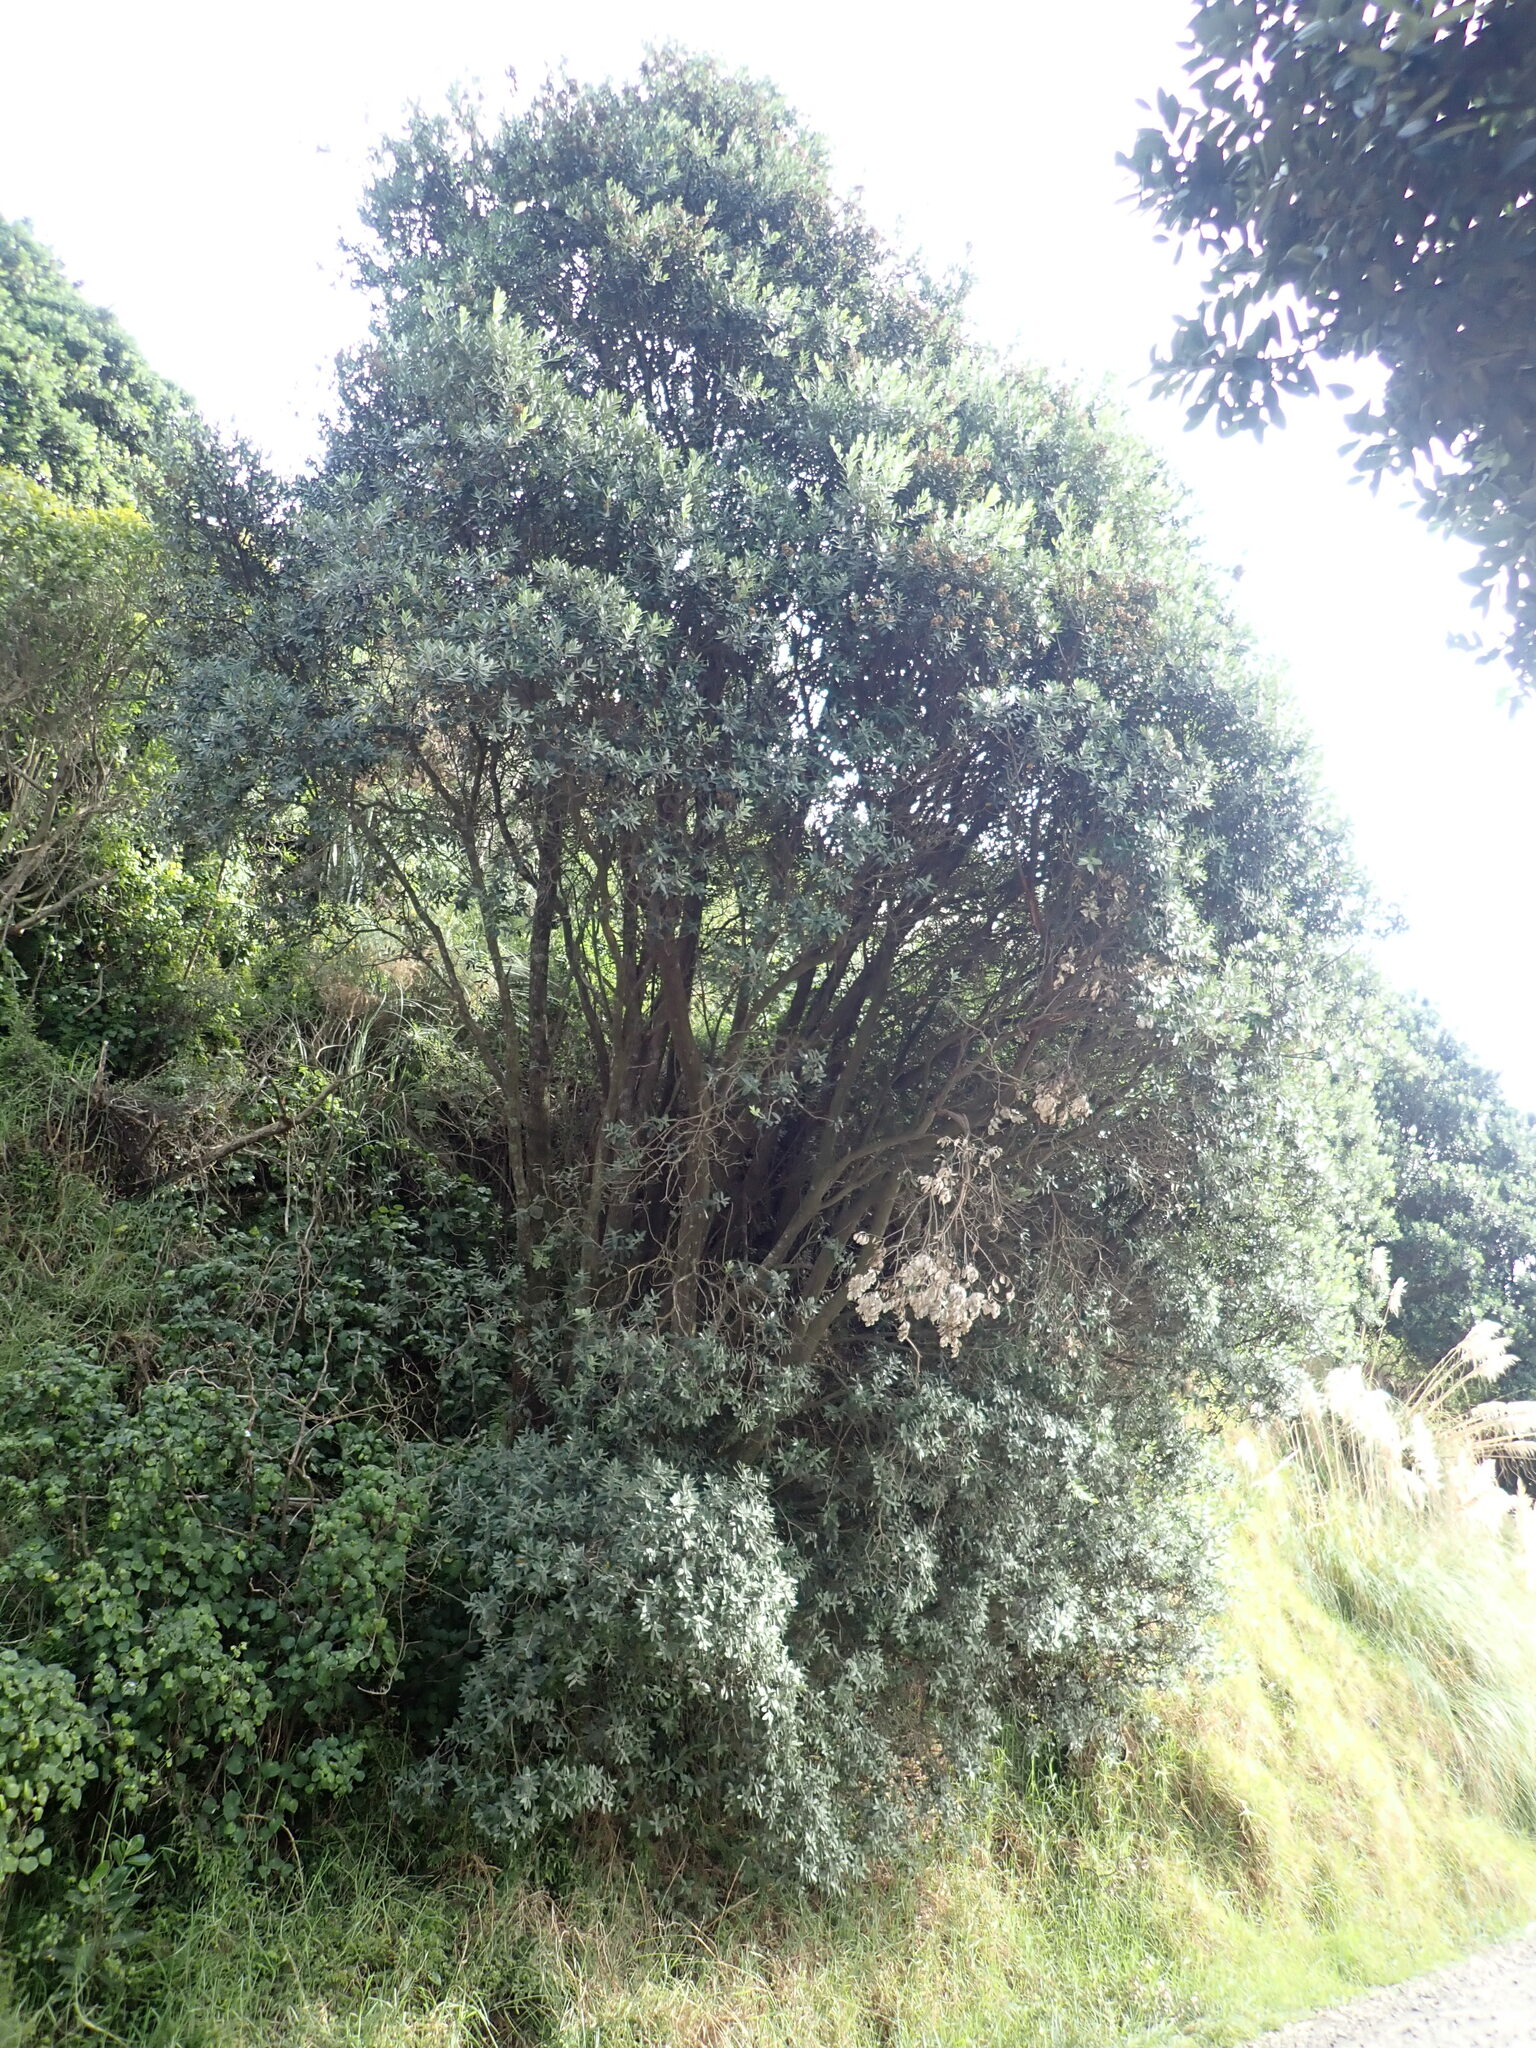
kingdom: Plantae
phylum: Tracheophyta
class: Magnoliopsida
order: Myrtales
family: Myrtaceae
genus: Metrosideros
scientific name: Metrosideros excelsa
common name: New zealand christmastree
